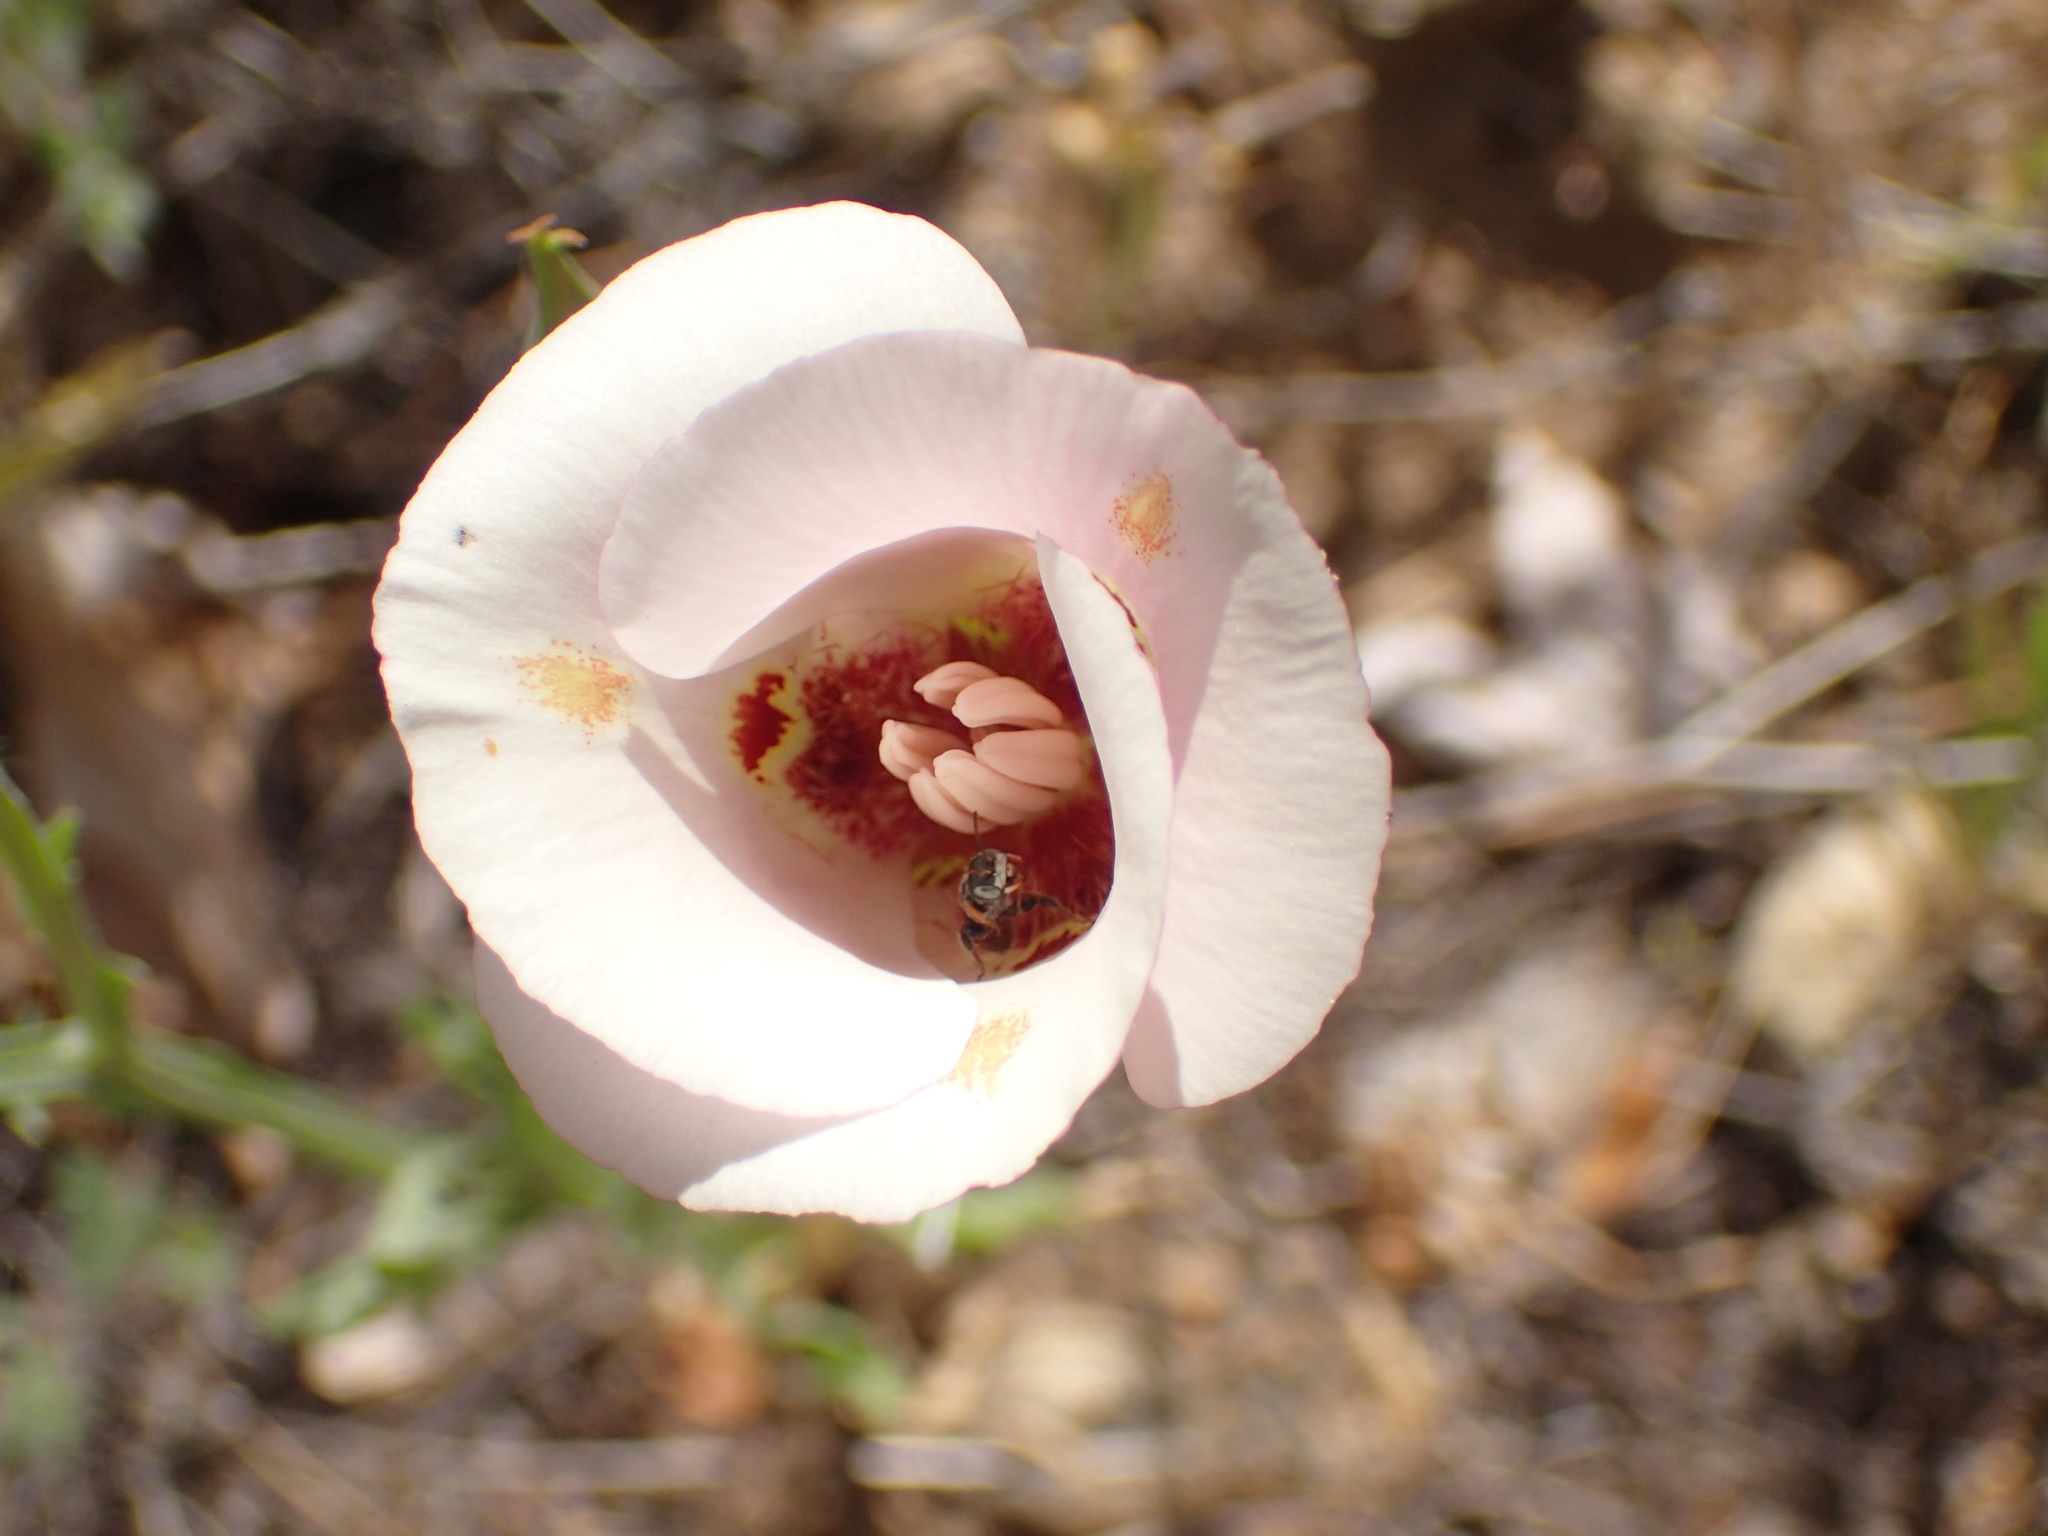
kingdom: Plantae
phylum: Tracheophyta
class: Liliopsida
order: Liliales
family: Liliaceae
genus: Calochortus
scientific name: Calochortus venustus
